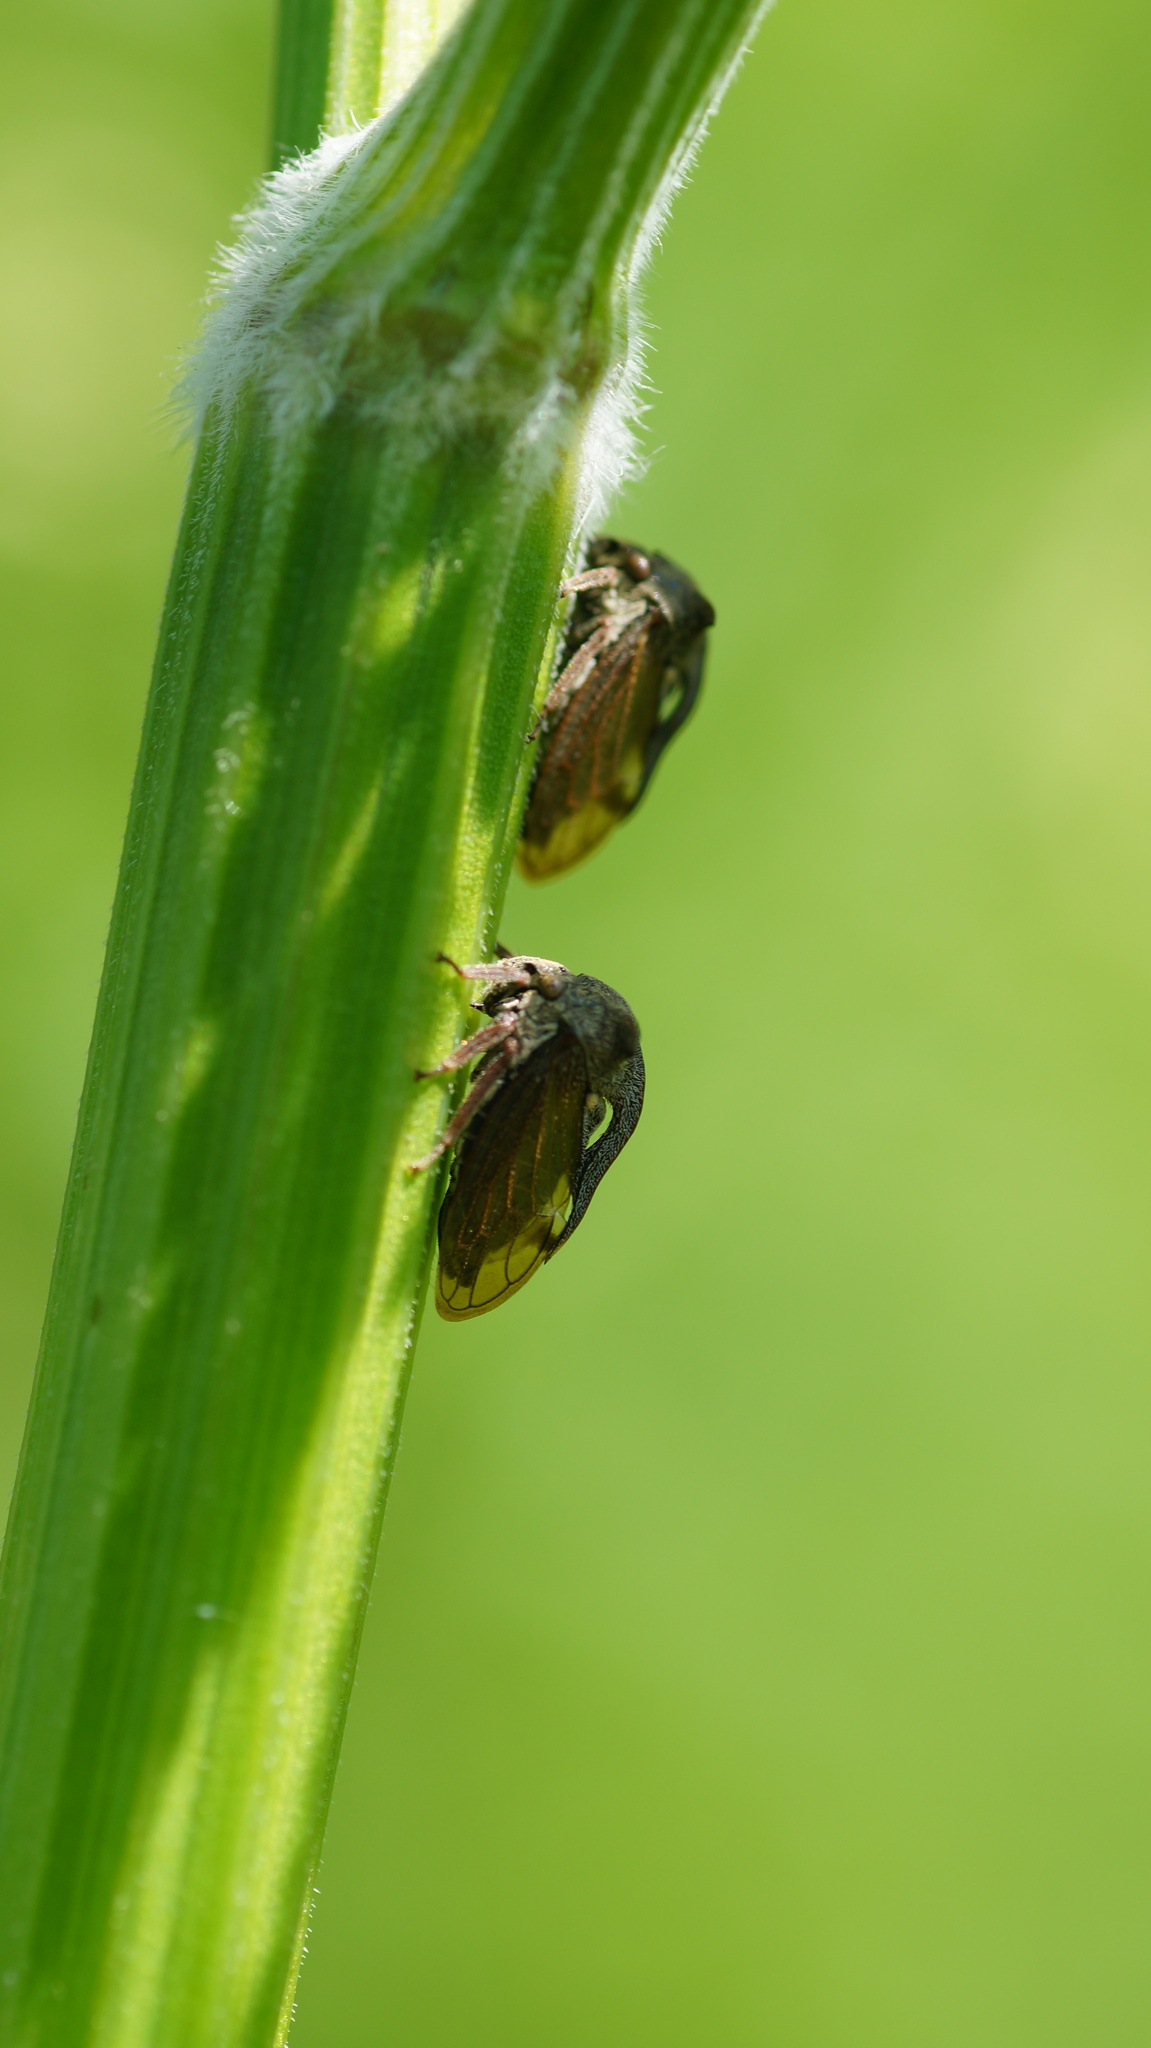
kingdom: Animalia
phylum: Arthropoda
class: Insecta
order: Hemiptera
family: Membracidae
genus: Centrotus
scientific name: Centrotus cornuta
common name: Treehopper
